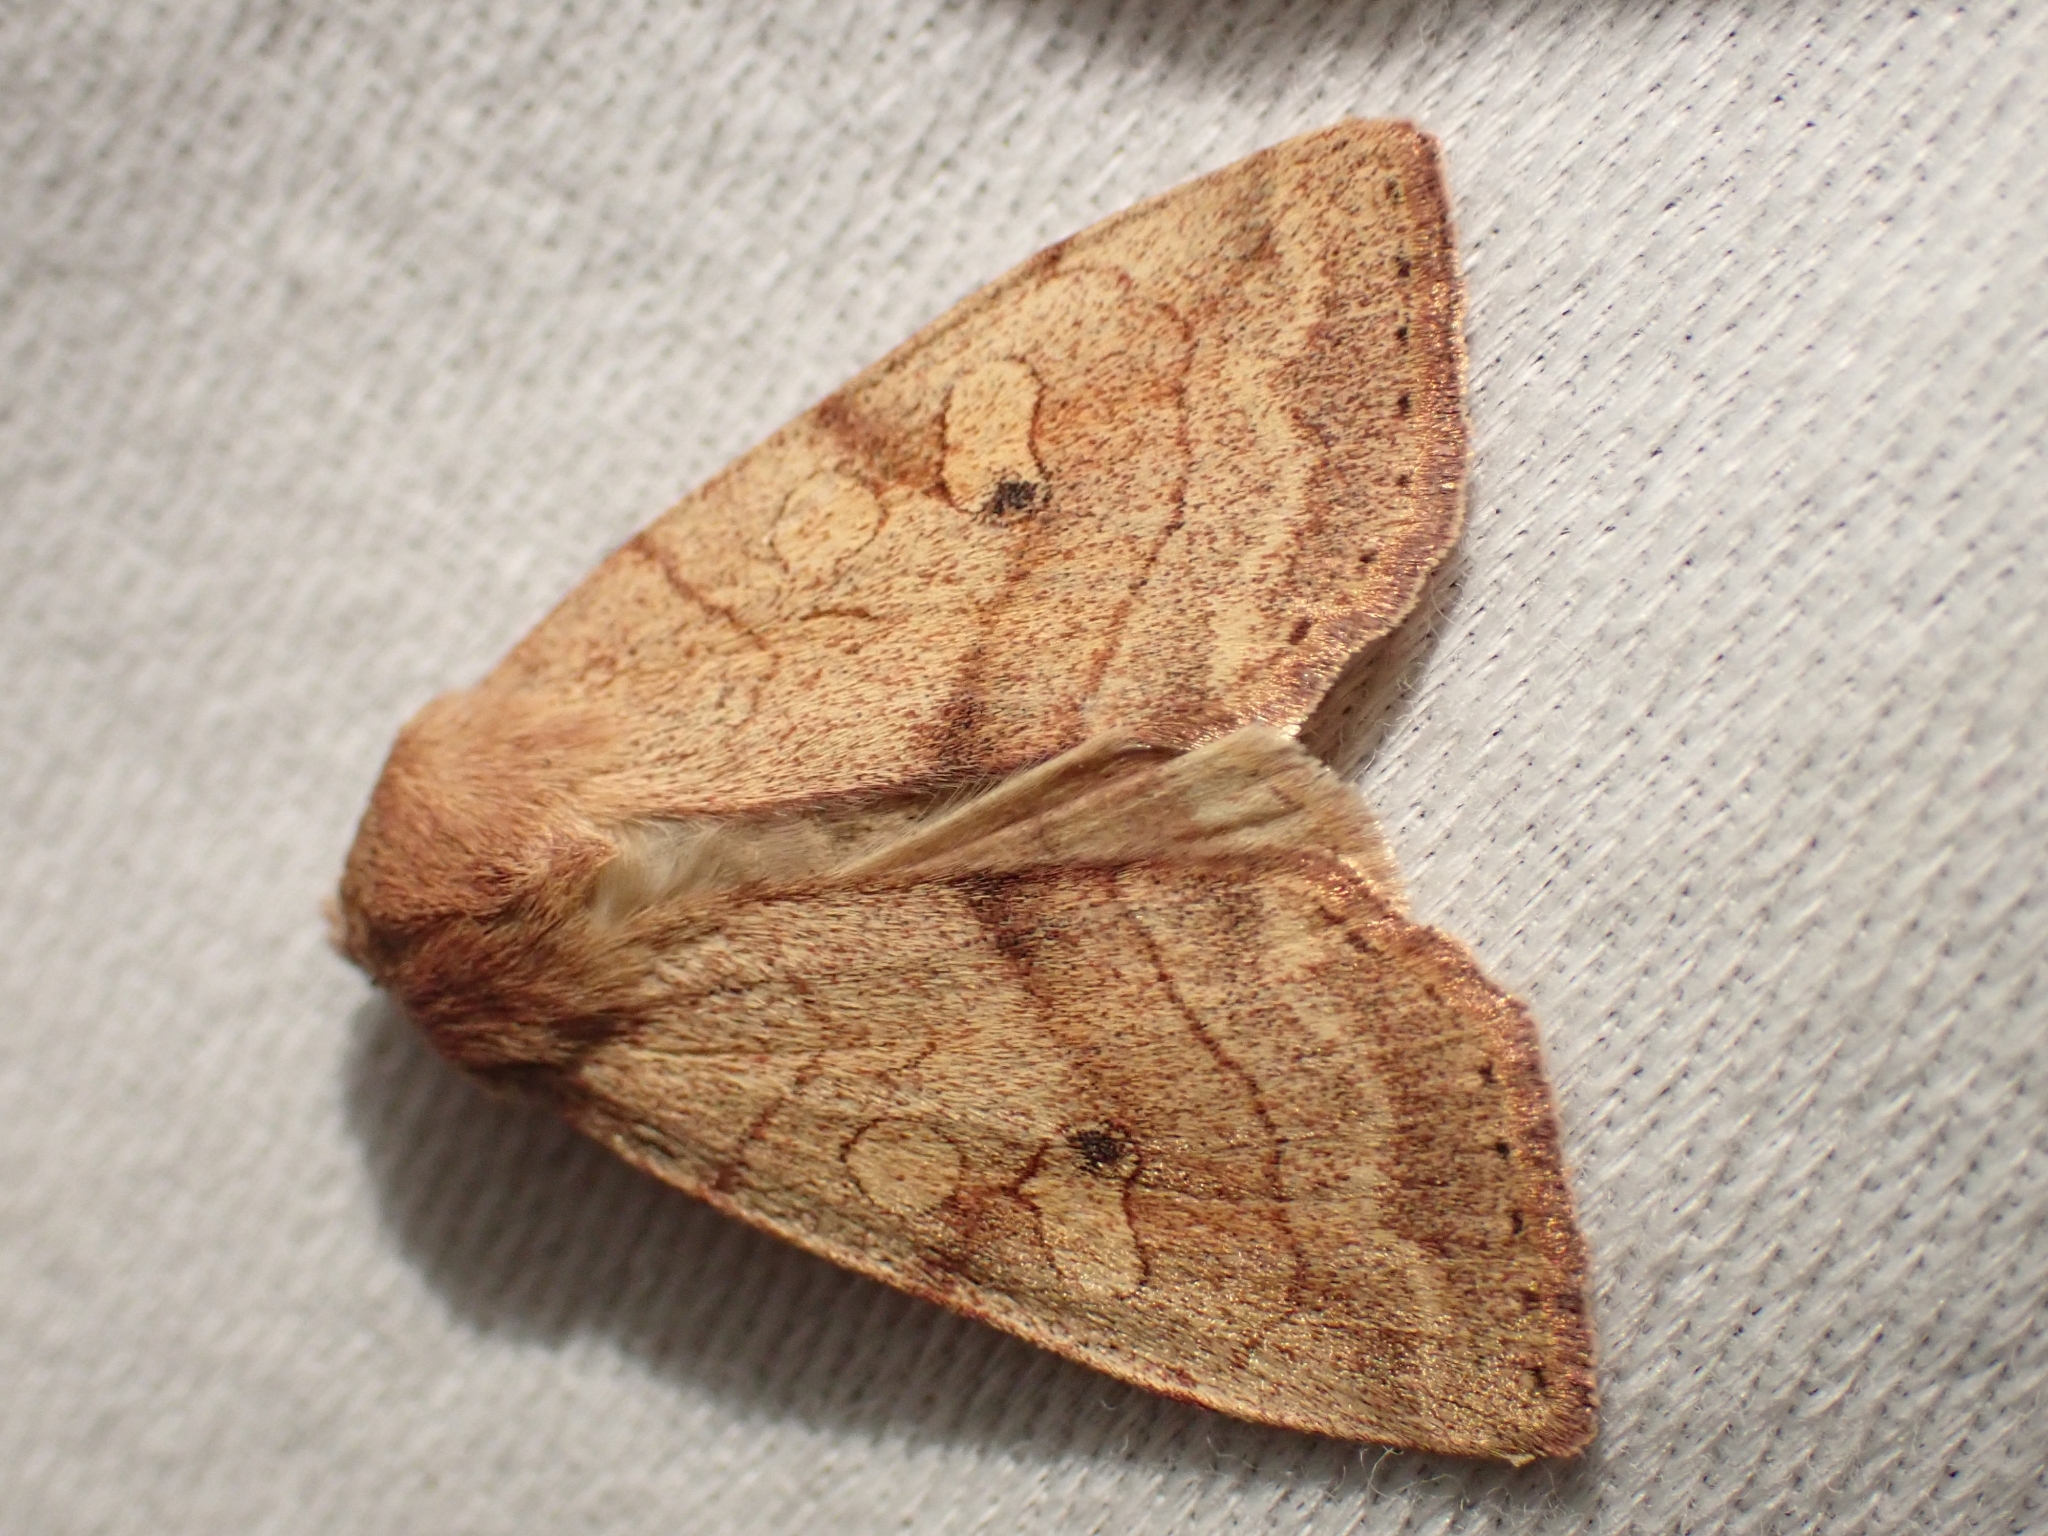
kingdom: Animalia
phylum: Arthropoda
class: Insecta
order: Lepidoptera
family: Noctuidae
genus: Enargia
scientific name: Enargia infumata
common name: Smoked sallow
